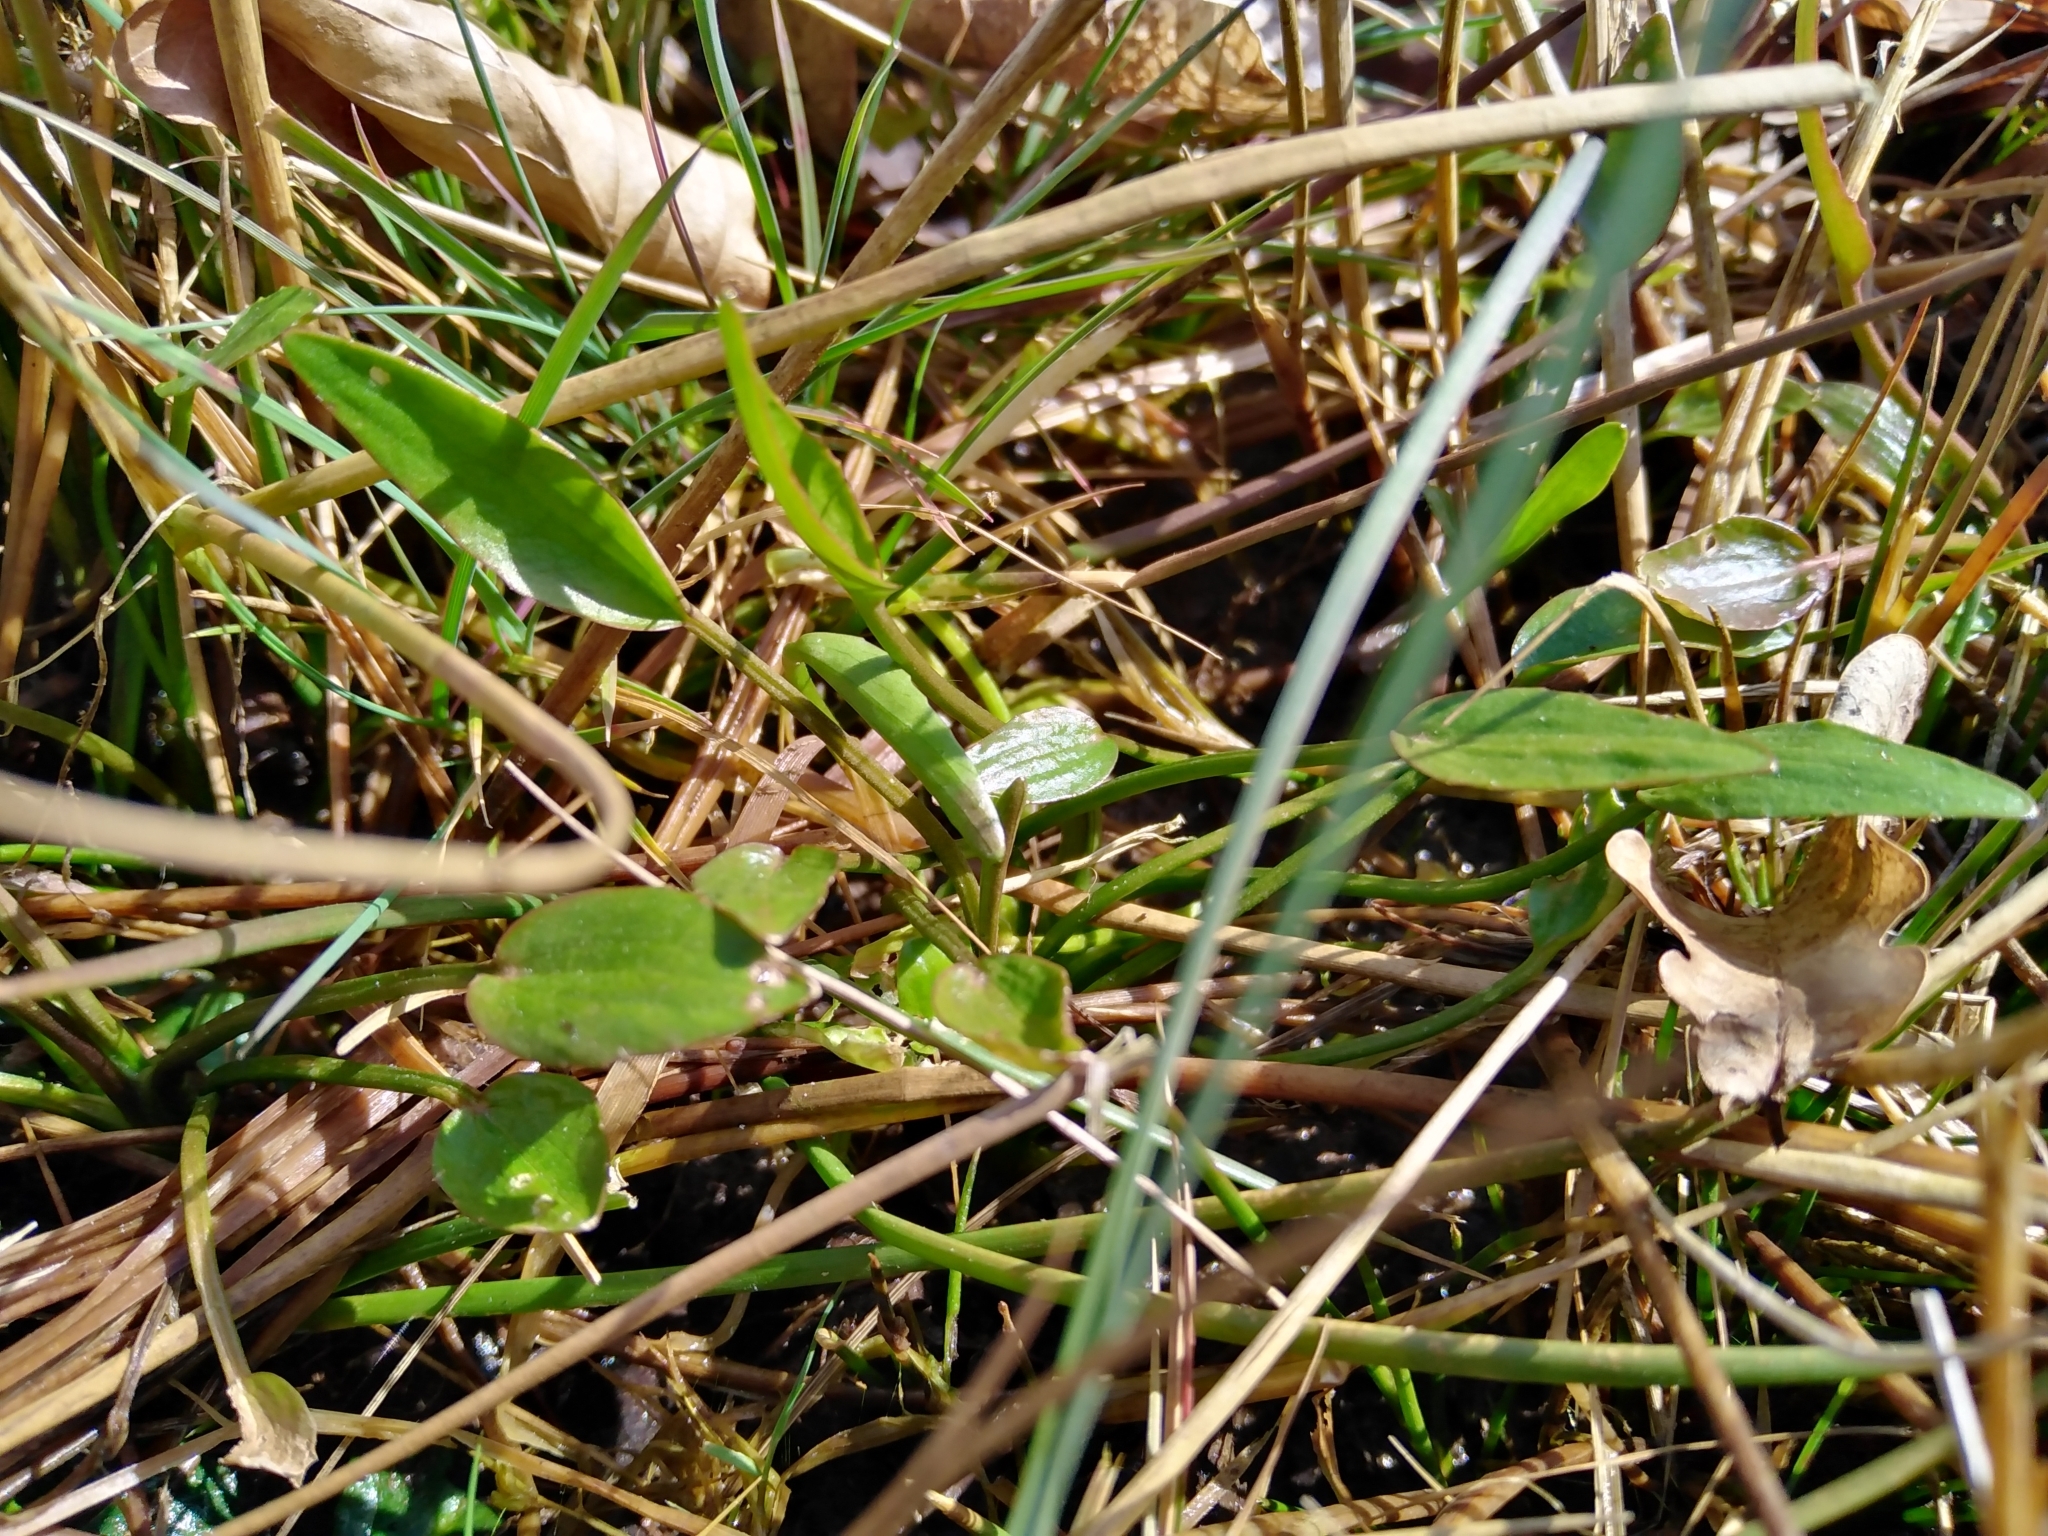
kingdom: Plantae
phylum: Tracheophyta
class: Magnoliopsida
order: Ranunculales
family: Ranunculaceae
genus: Ranunculus
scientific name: Ranunculus flammula
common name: Lesser spearwort
